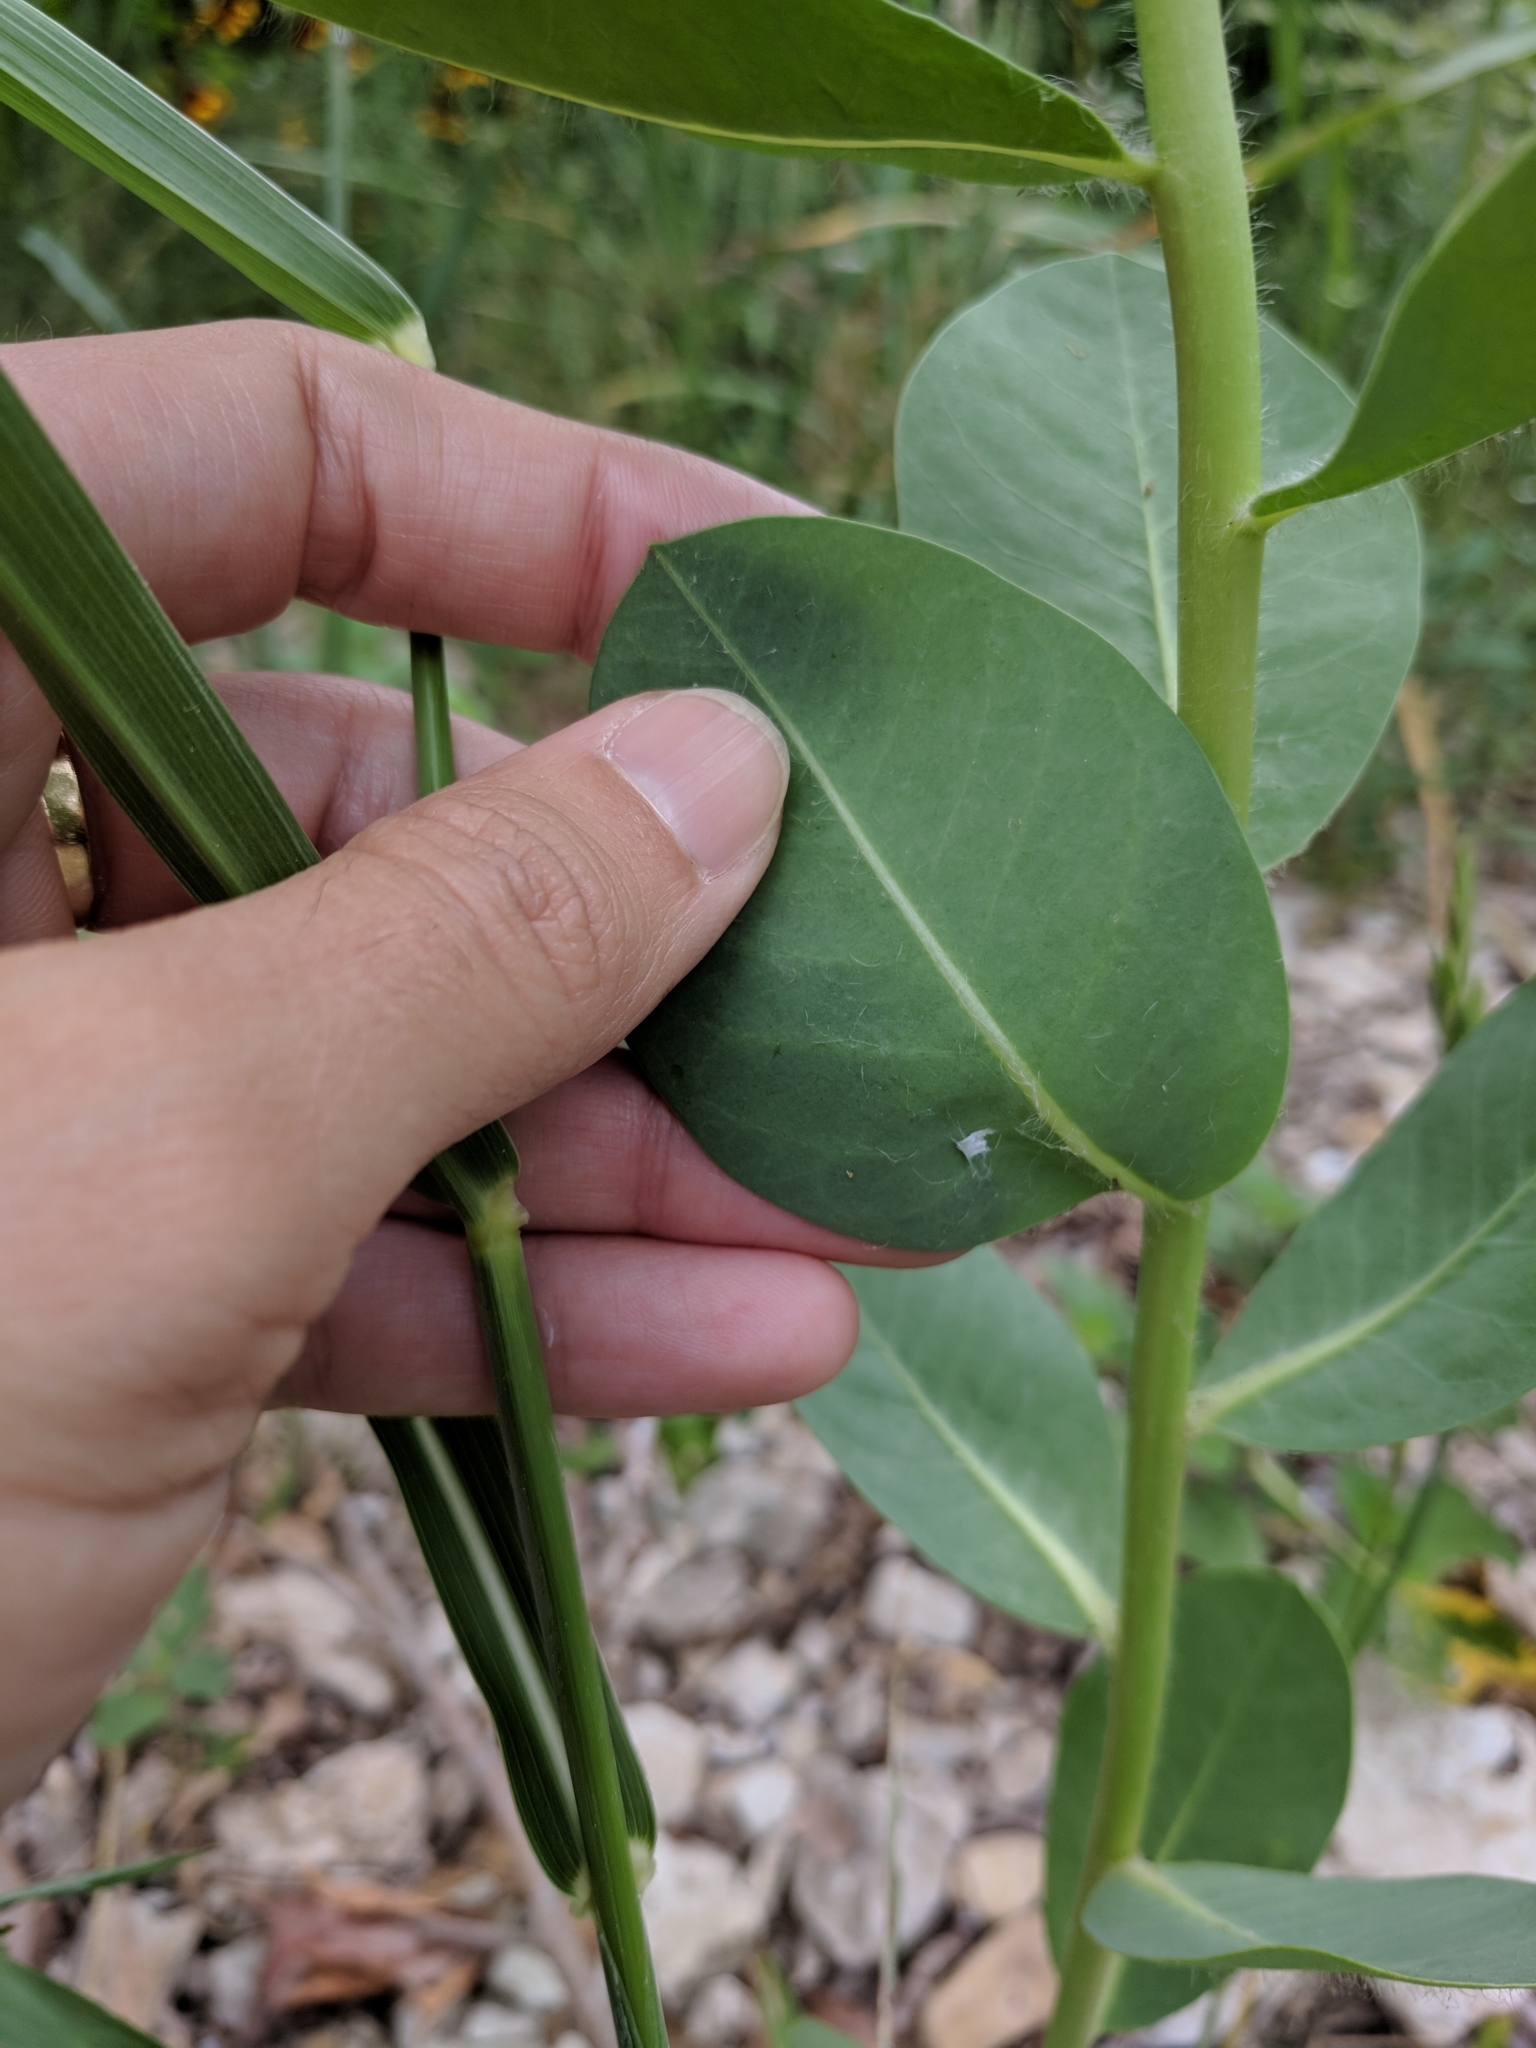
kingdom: Plantae
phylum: Tracheophyta
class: Magnoliopsida
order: Malpighiales
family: Euphorbiaceae
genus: Euphorbia
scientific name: Euphorbia marginata
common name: Ghostweed
